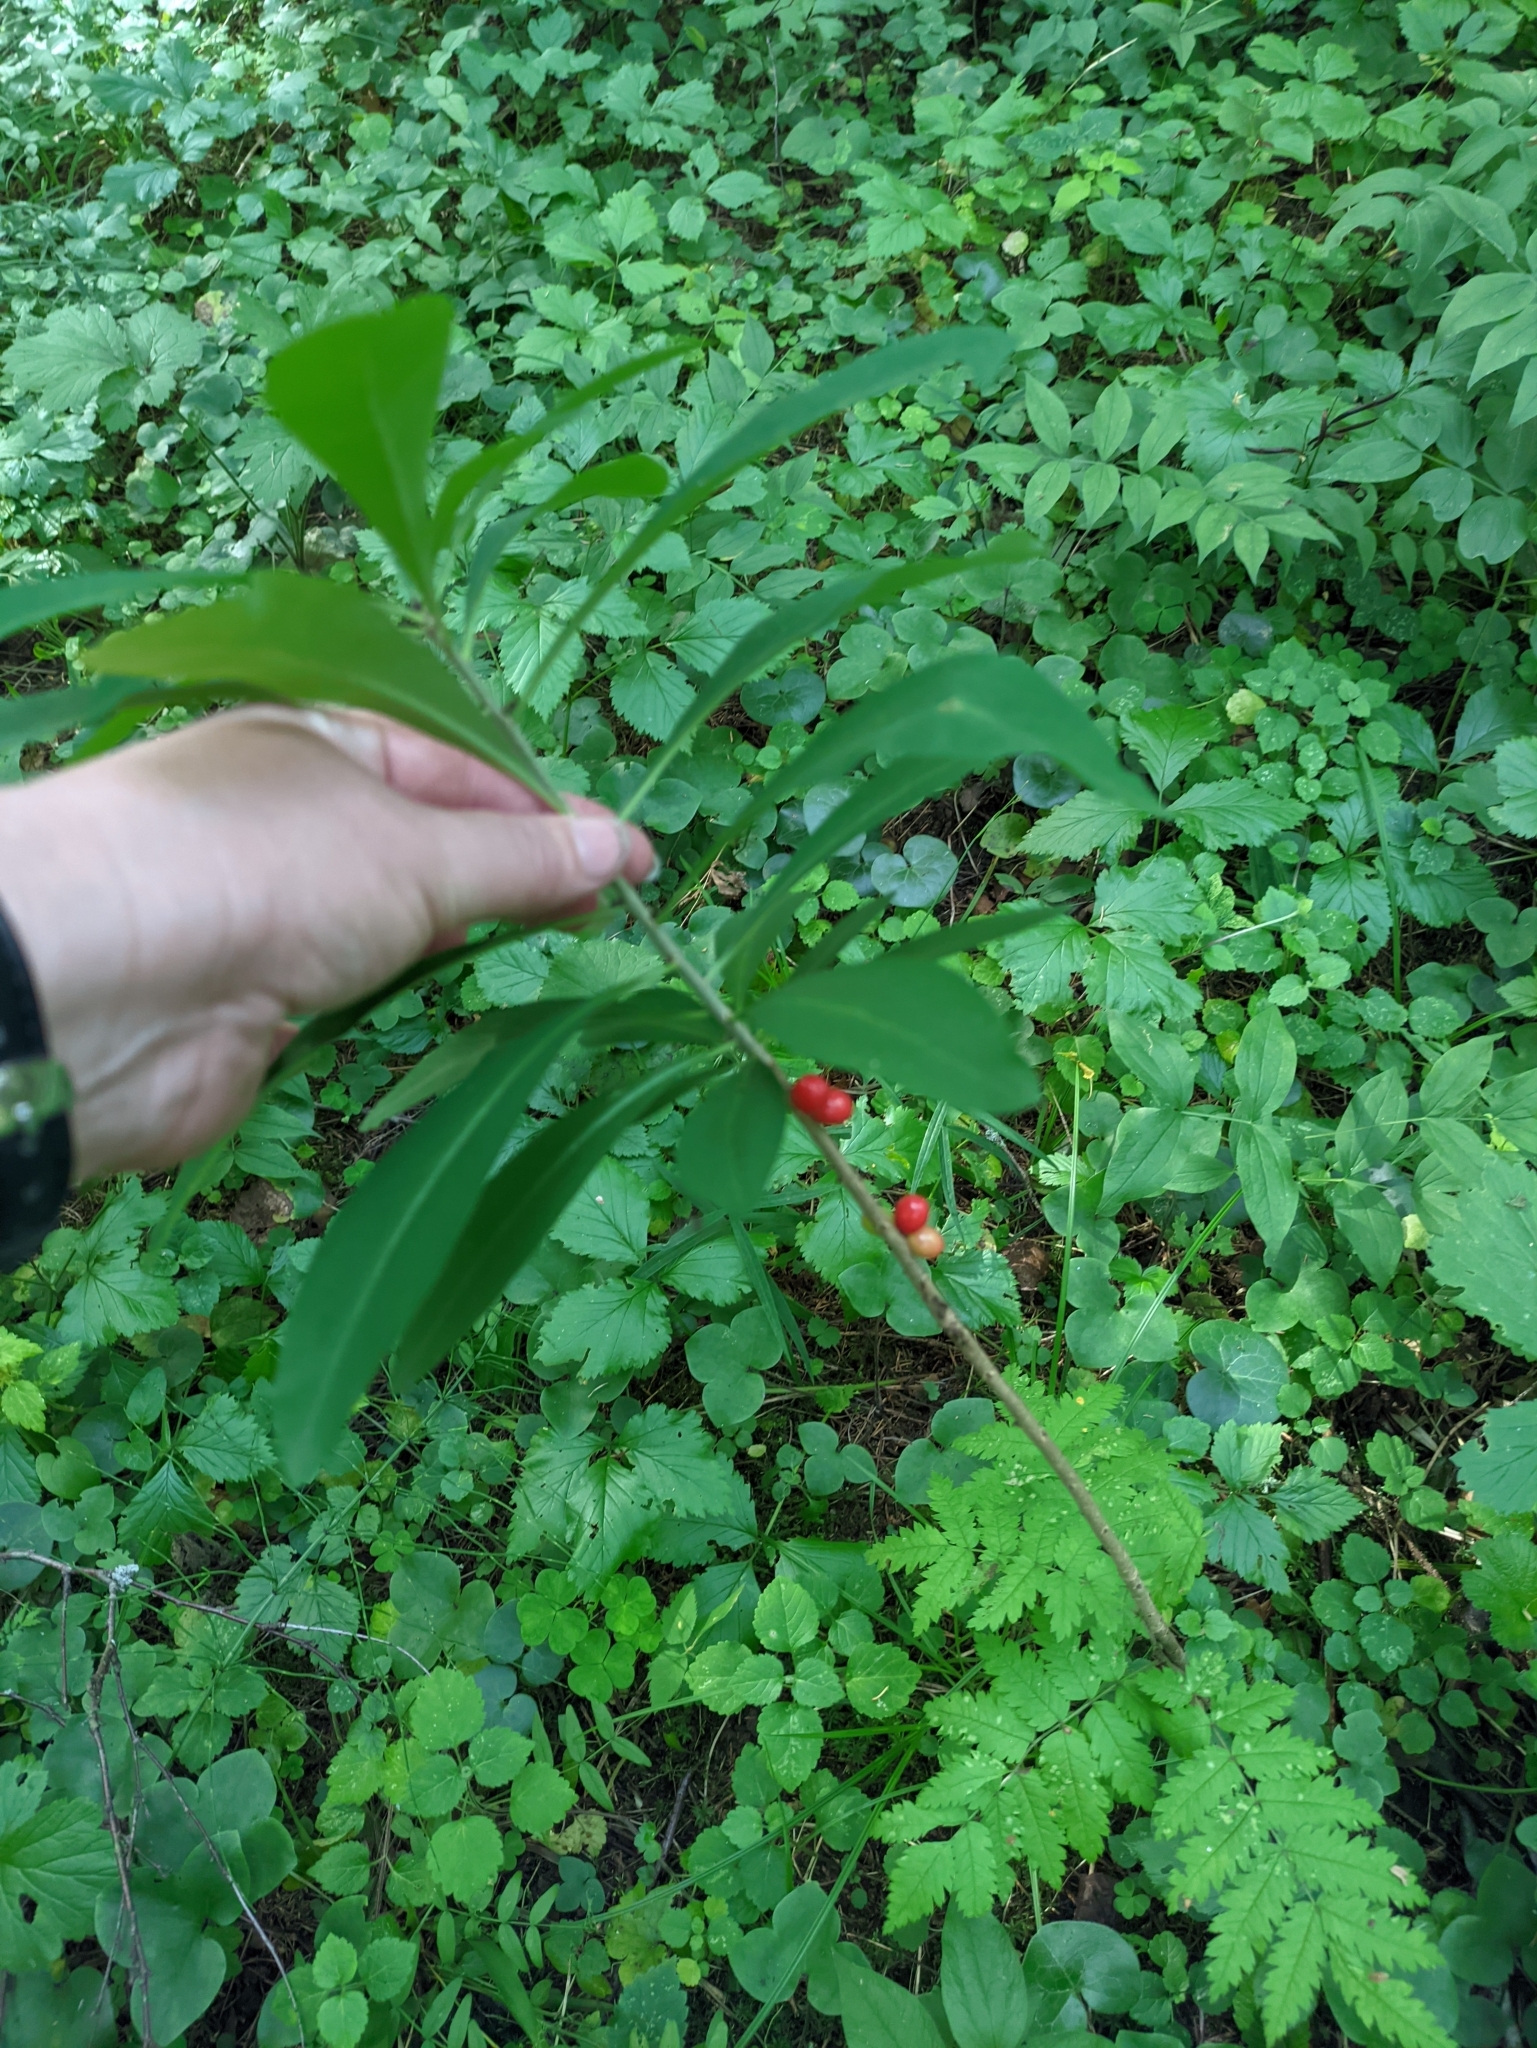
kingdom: Plantae
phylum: Tracheophyta
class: Magnoliopsida
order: Malvales
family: Thymelaeaceae
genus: Daphne
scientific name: Daphne mezereum
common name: Mezereon
